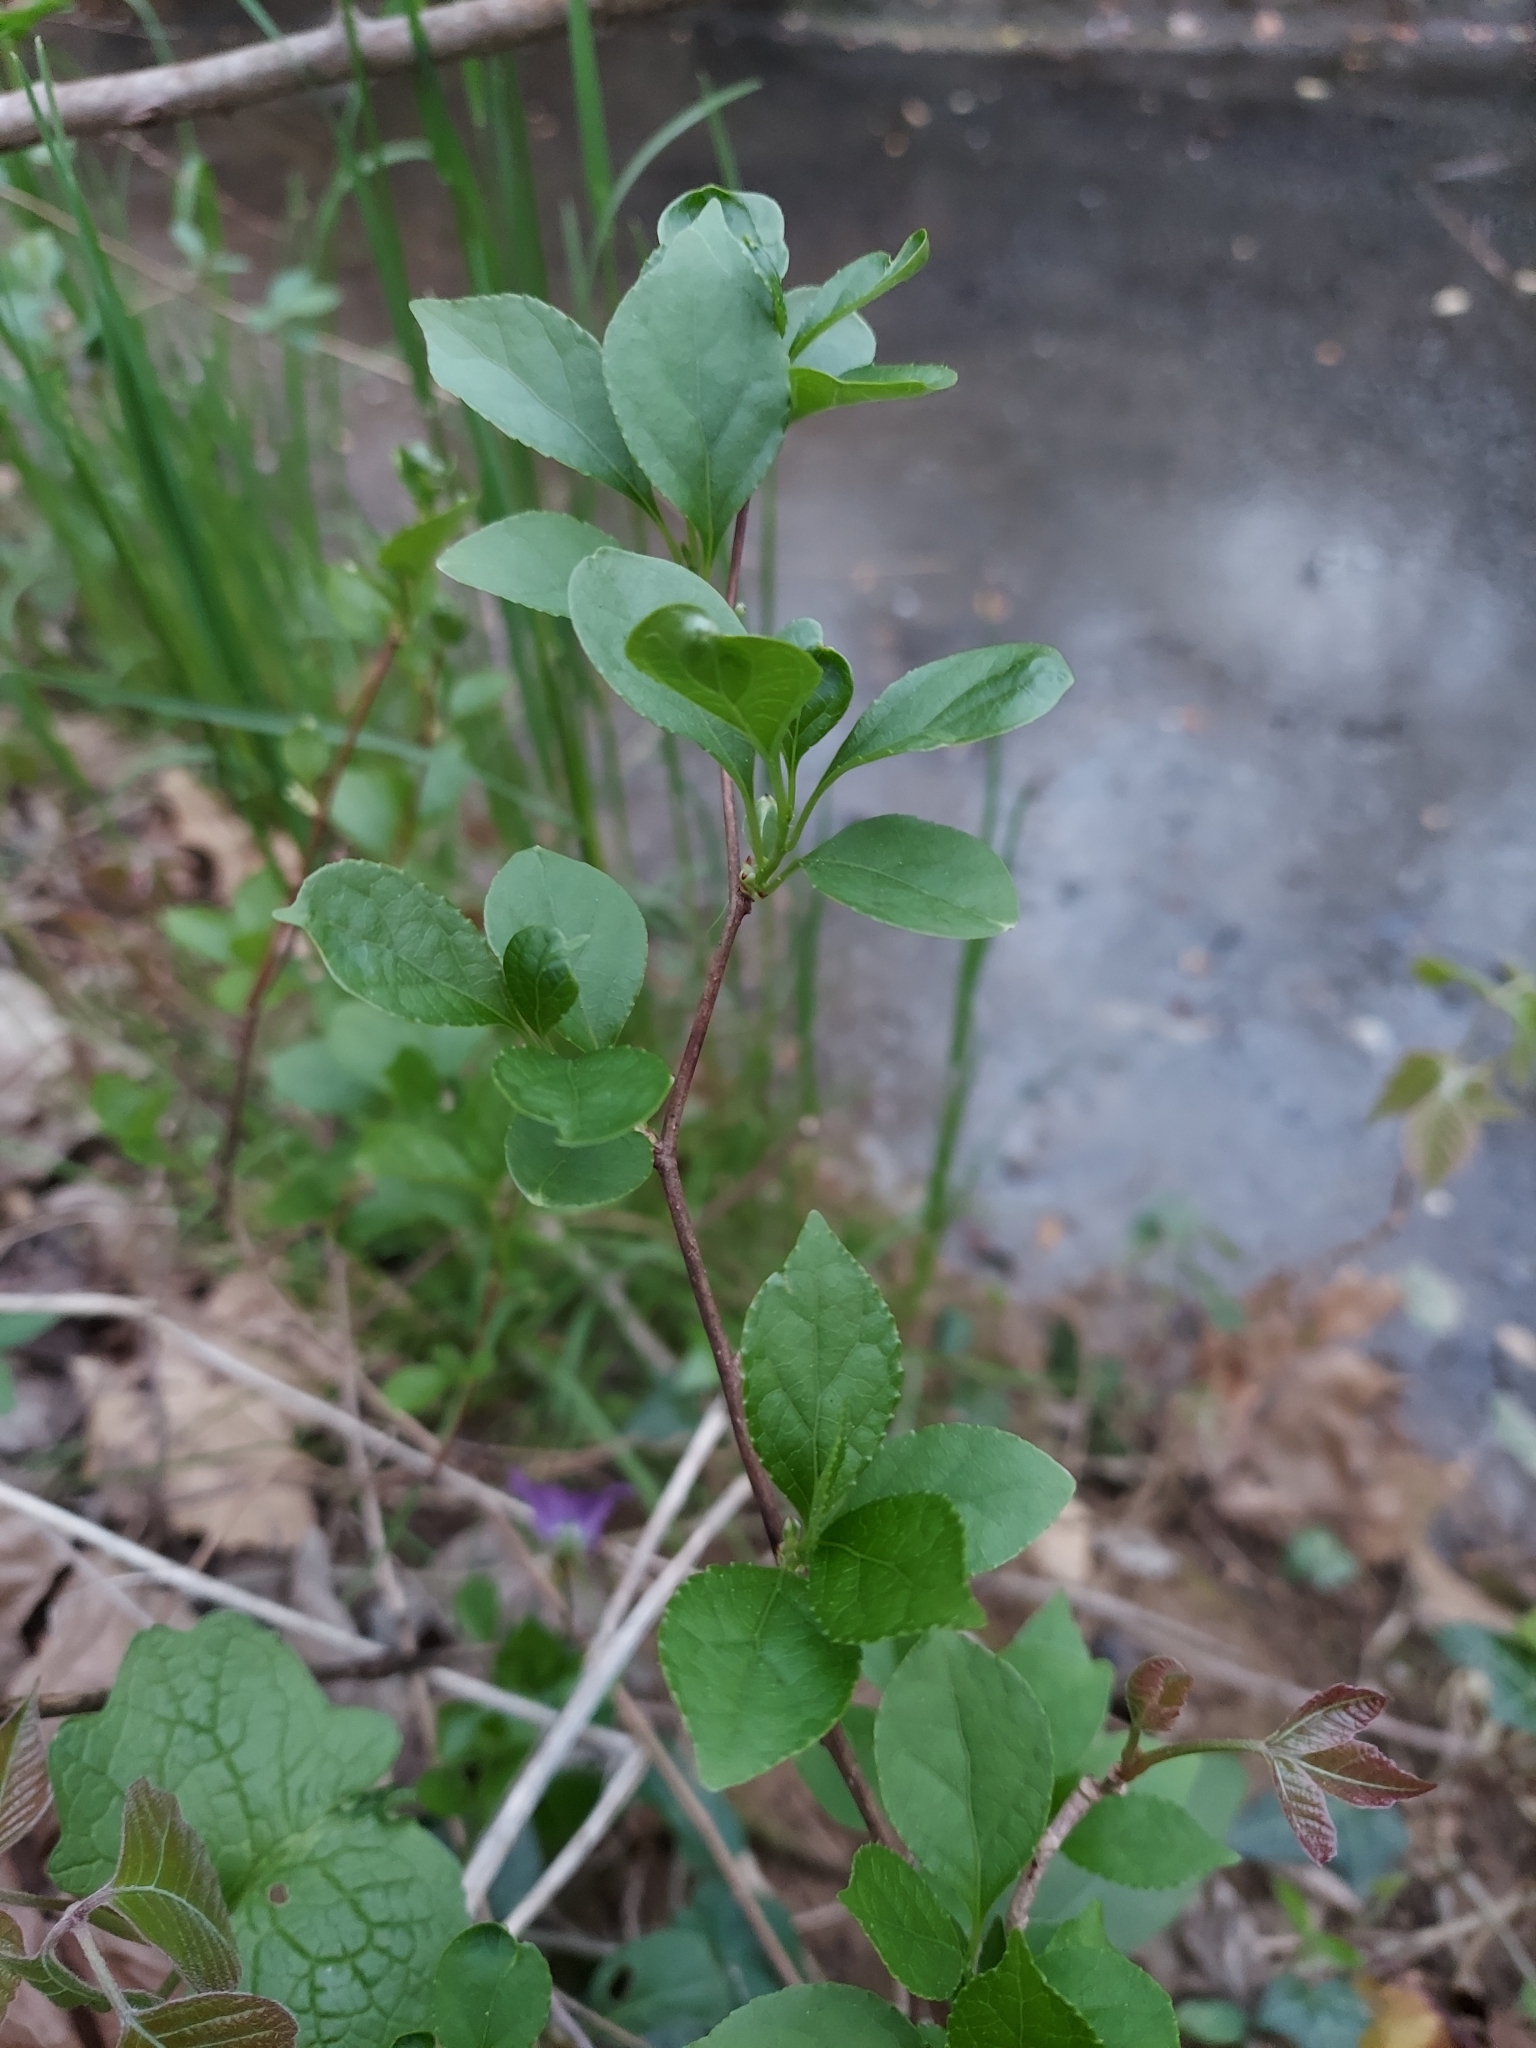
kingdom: Plantae
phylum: Tracheophyta
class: Magnoliopsida
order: Celastrales
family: Celastraceae
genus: Celastrus
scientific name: Celastrus orbiculatus
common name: Oriental bittersweet
